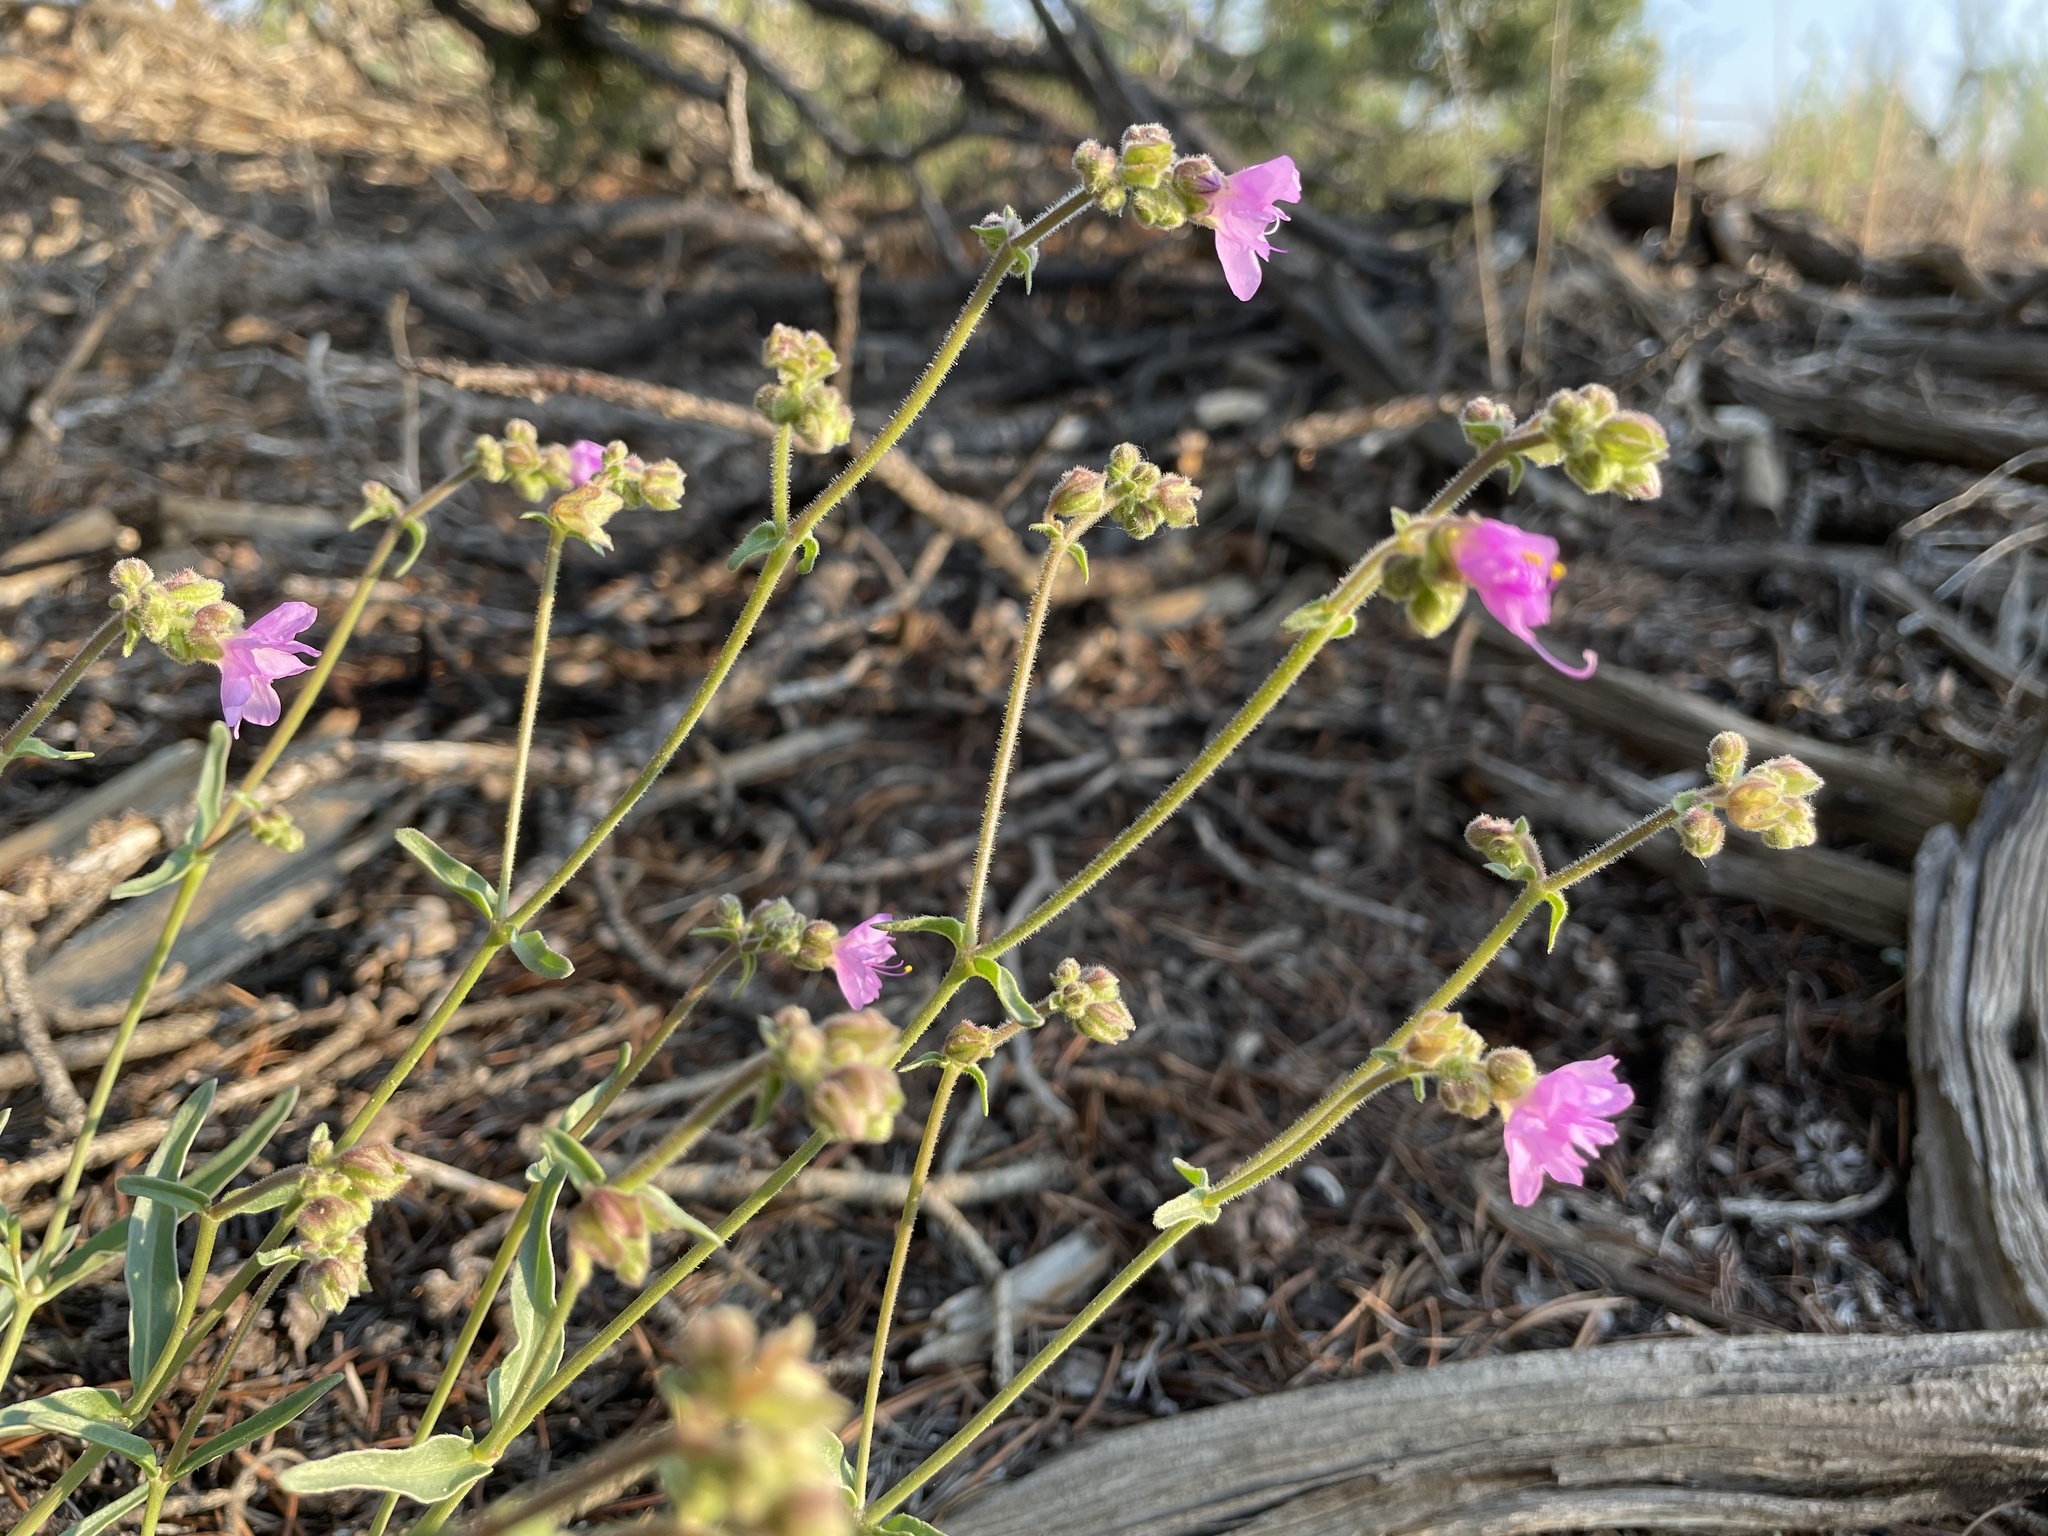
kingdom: Plantae
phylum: Tracheophyta
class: Magnoliopsida
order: Caryophyllales
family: Nyctaginaceae
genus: Mirabilis
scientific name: Mirabilis linearis
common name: Linear-leaved four-o'clock
